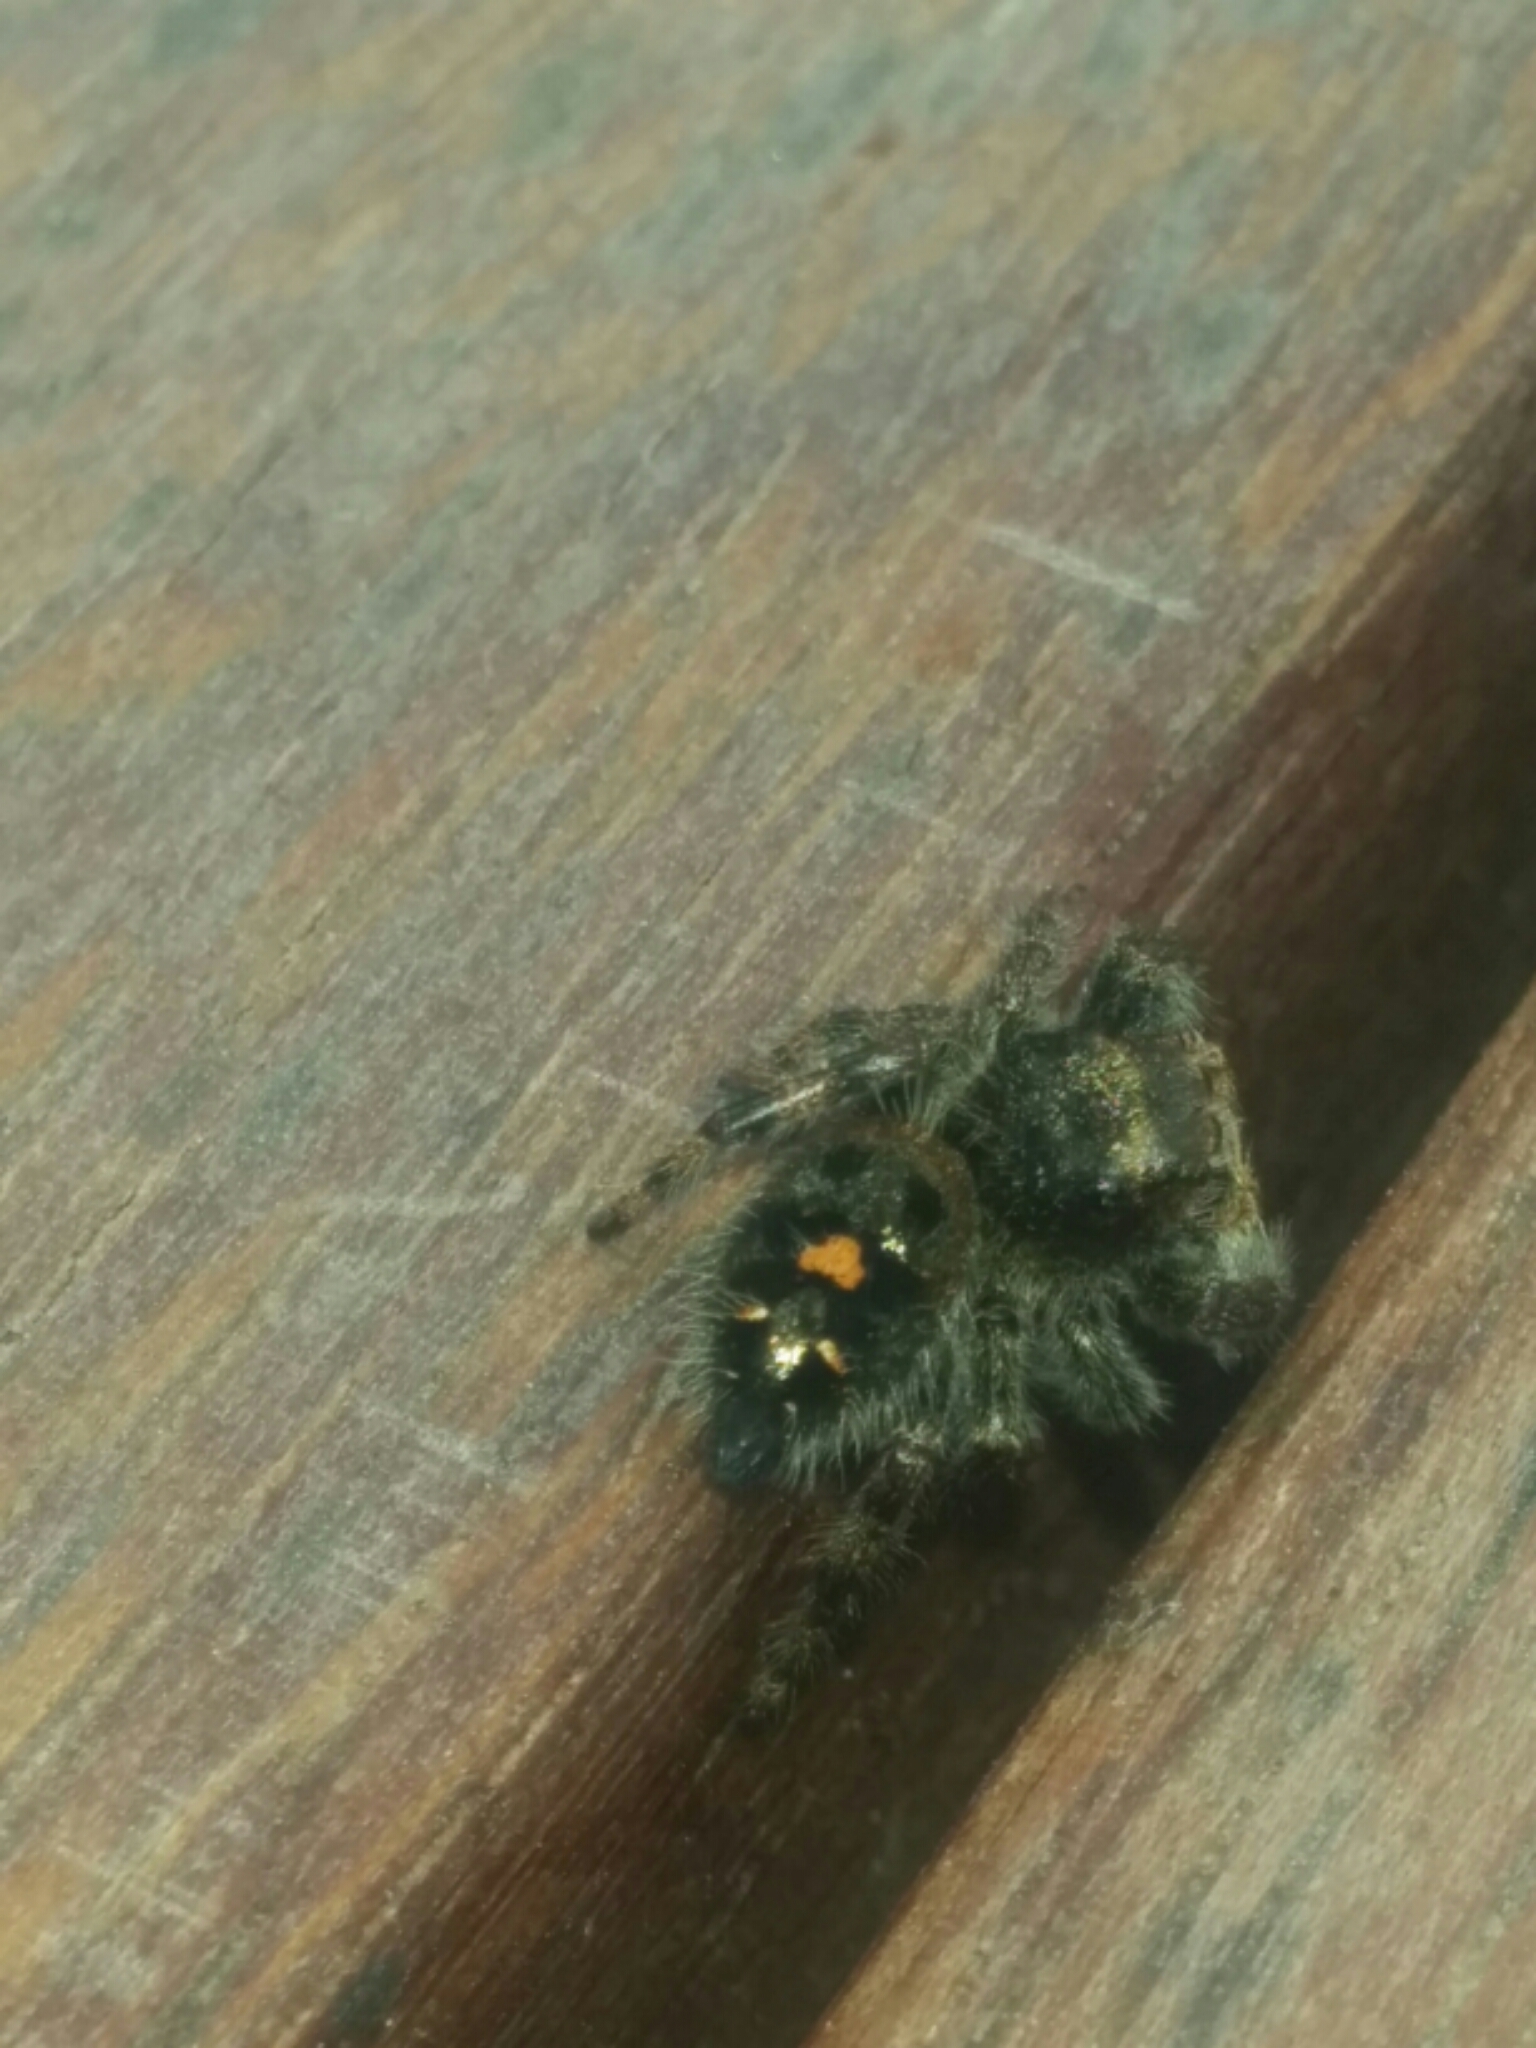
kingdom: Animalia
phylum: Arthropoda
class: Arachnida
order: Araneae
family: Salticidae
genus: Phidippus
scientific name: Phidippus audax
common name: Bold jumper
